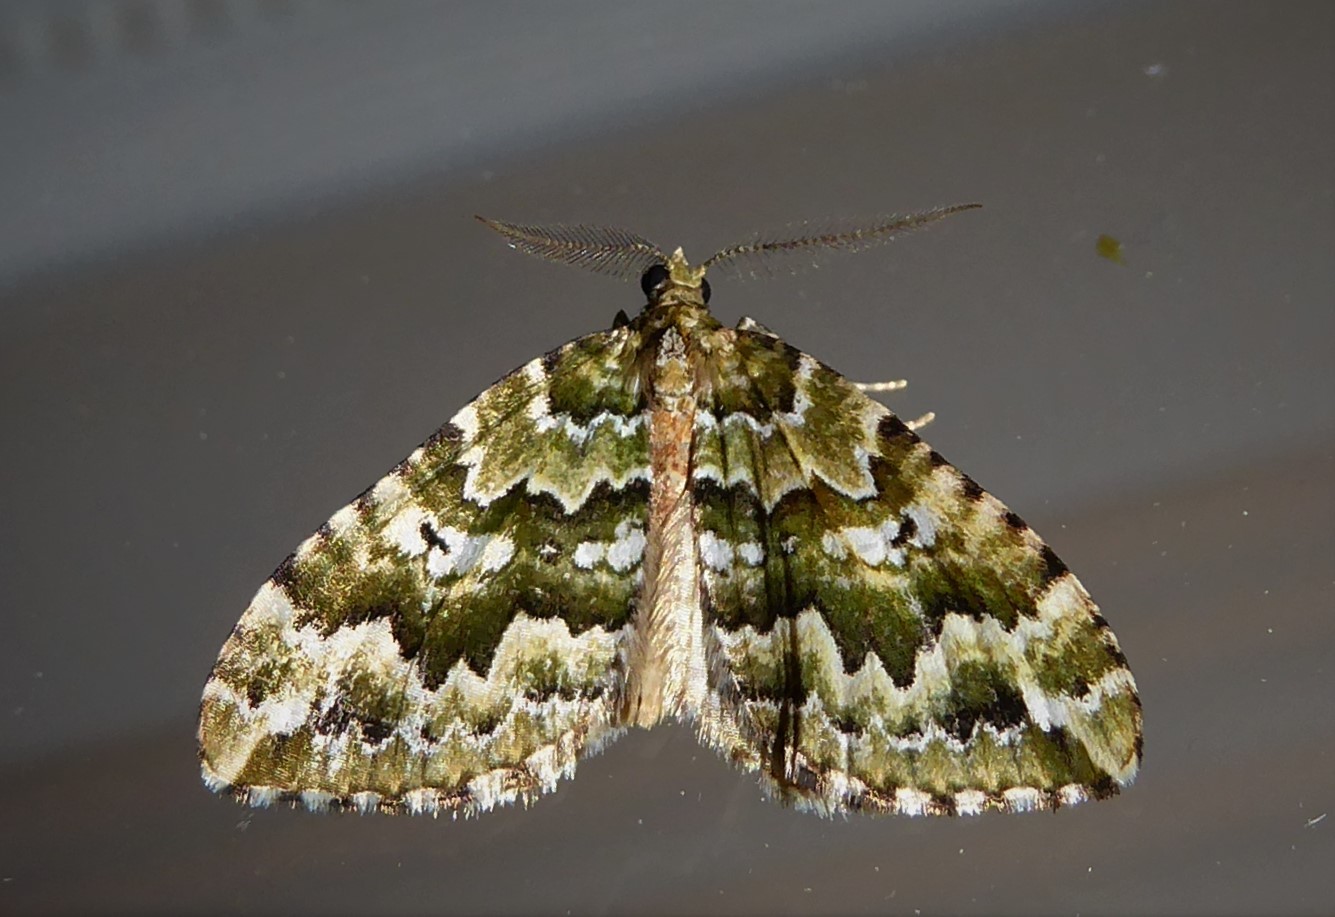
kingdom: Animalia
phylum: Arthropoda
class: Insecta
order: Lepidoptera
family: Geometridae
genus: Asaphodes
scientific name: Asaphodes beata
